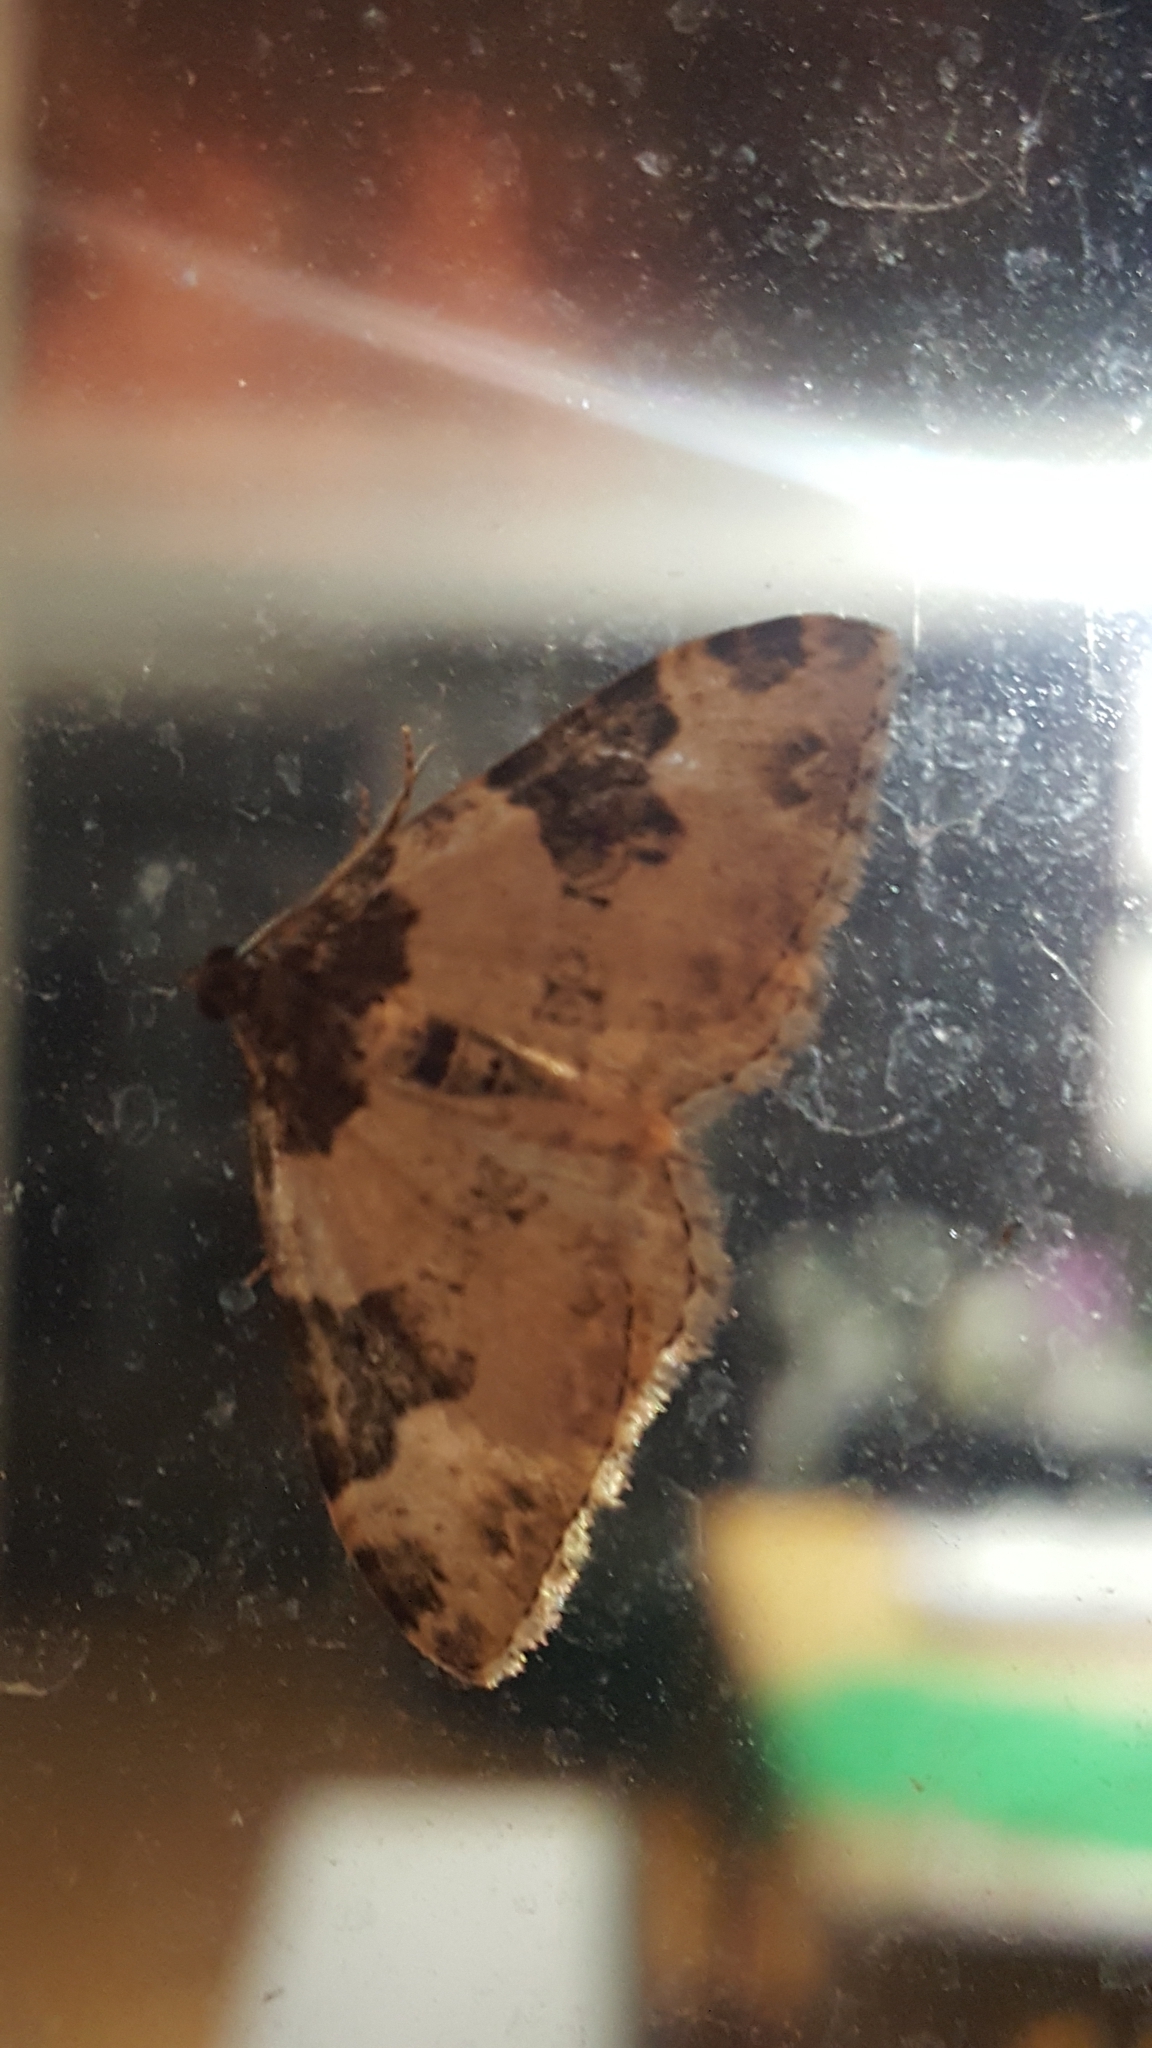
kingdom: Animalia
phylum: Arthropoda
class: Insecta
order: Lepidoptera
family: Geometridae
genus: Xanthorhoe
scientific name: Xanthorhoe fluctuata
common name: Garden carpet
